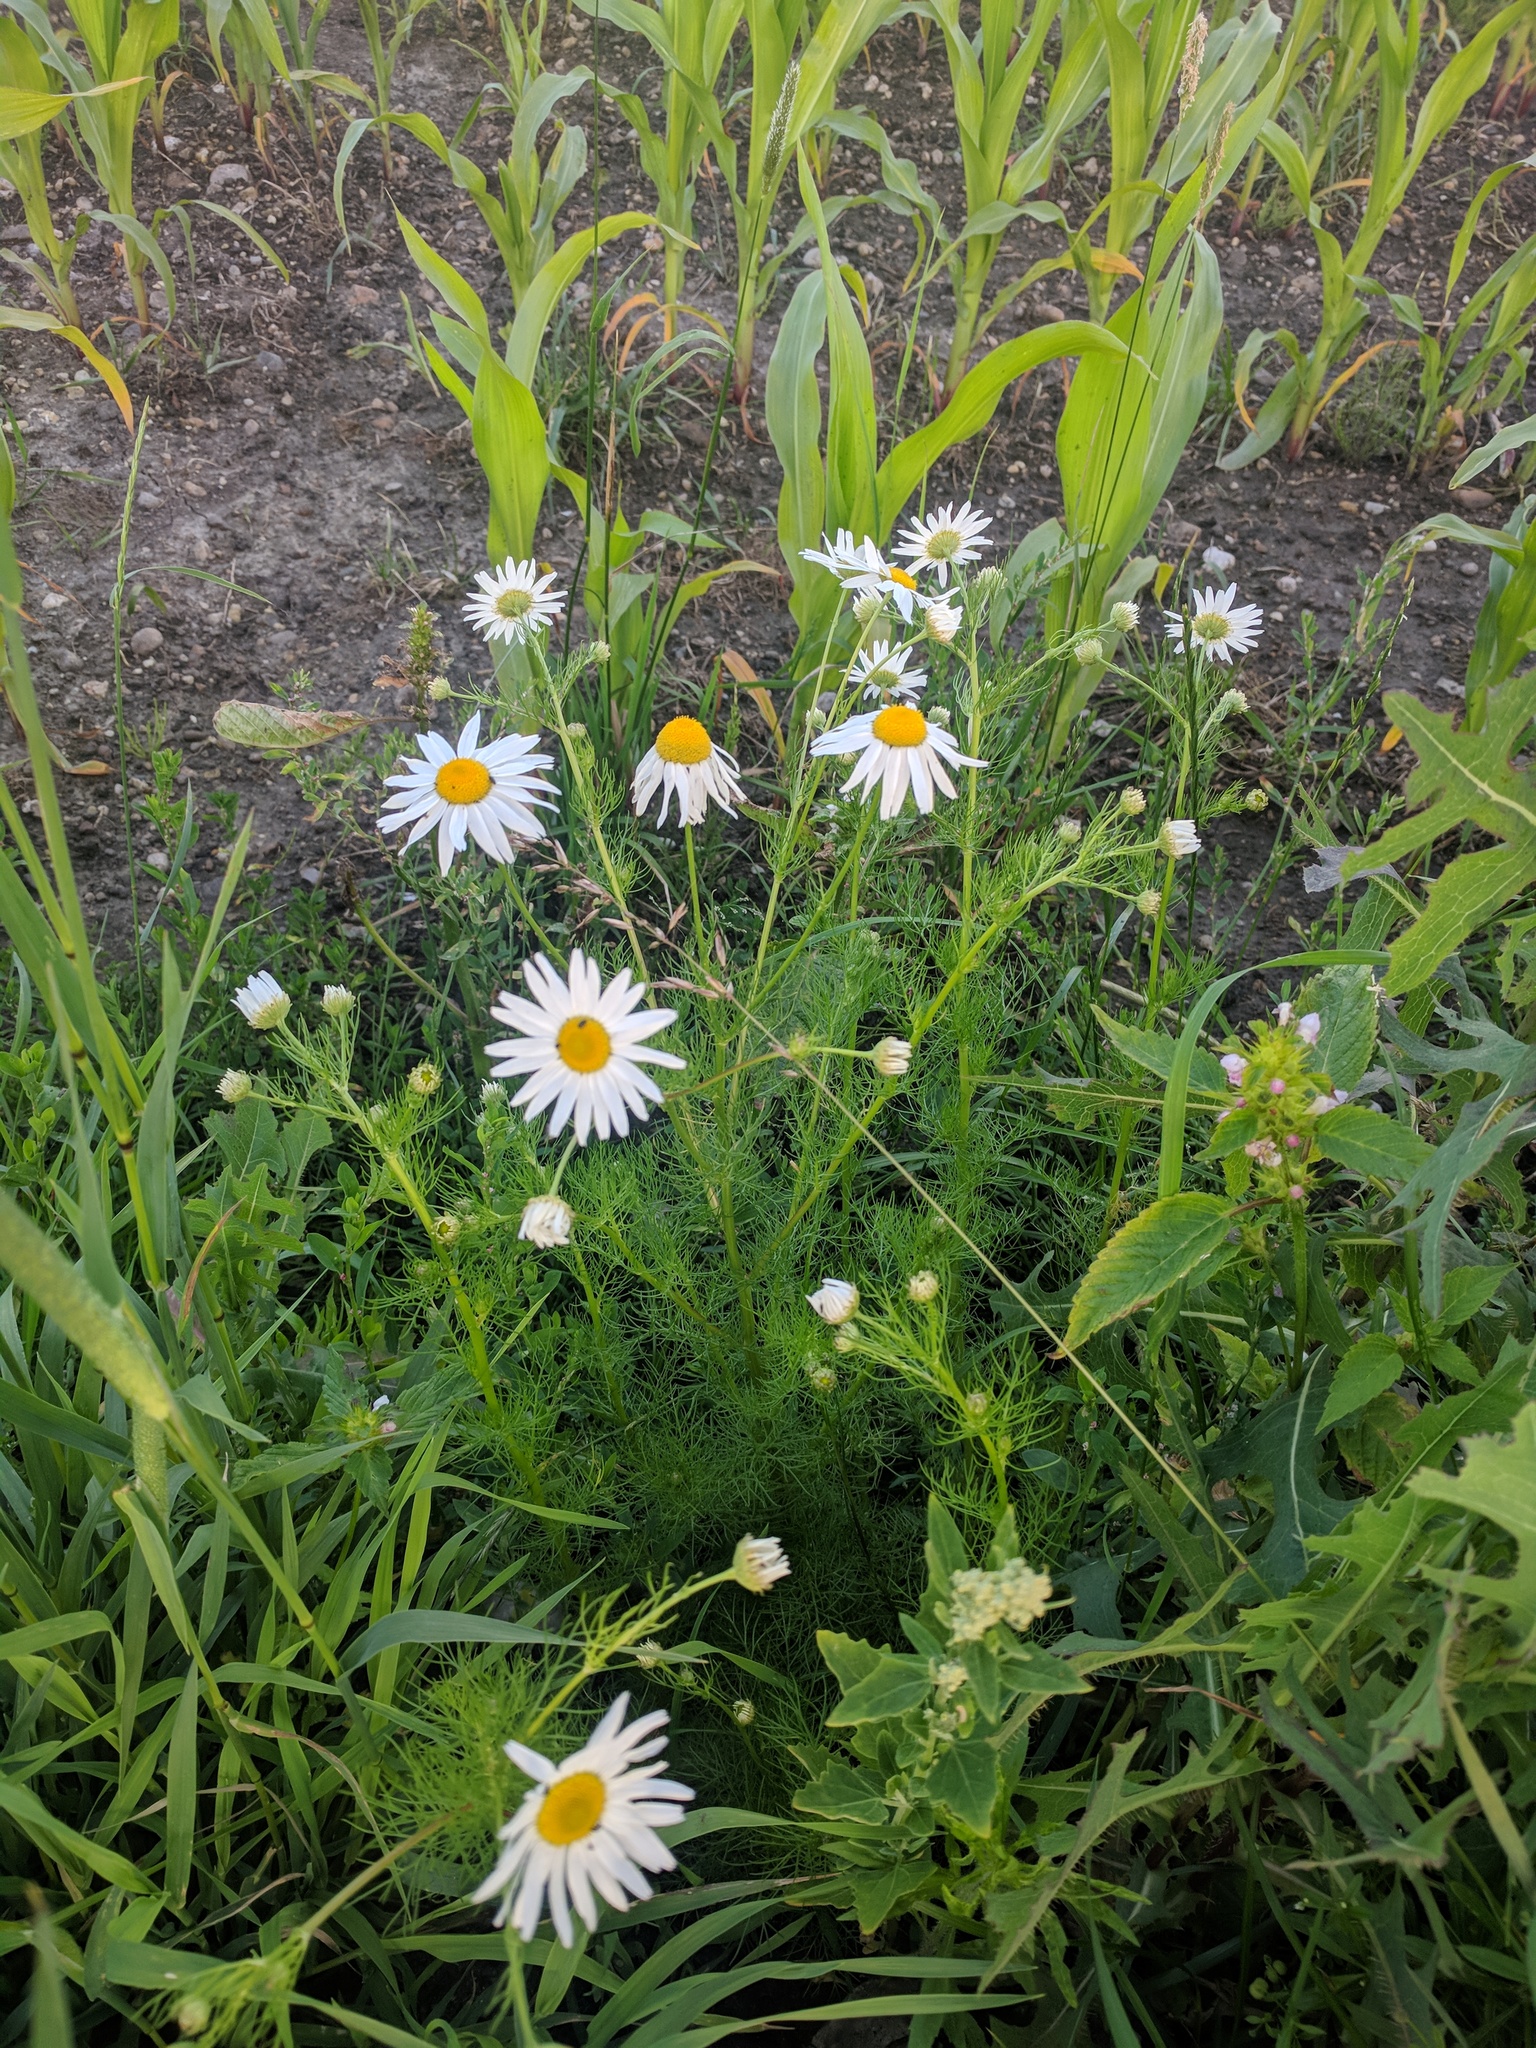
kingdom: Plantae
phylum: Tracheophyta
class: Magnoliopsida
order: Asterales
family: Asteraceae
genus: Tripleurospermum
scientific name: Tripleurospermum inodorum
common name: Scentless mayweed
